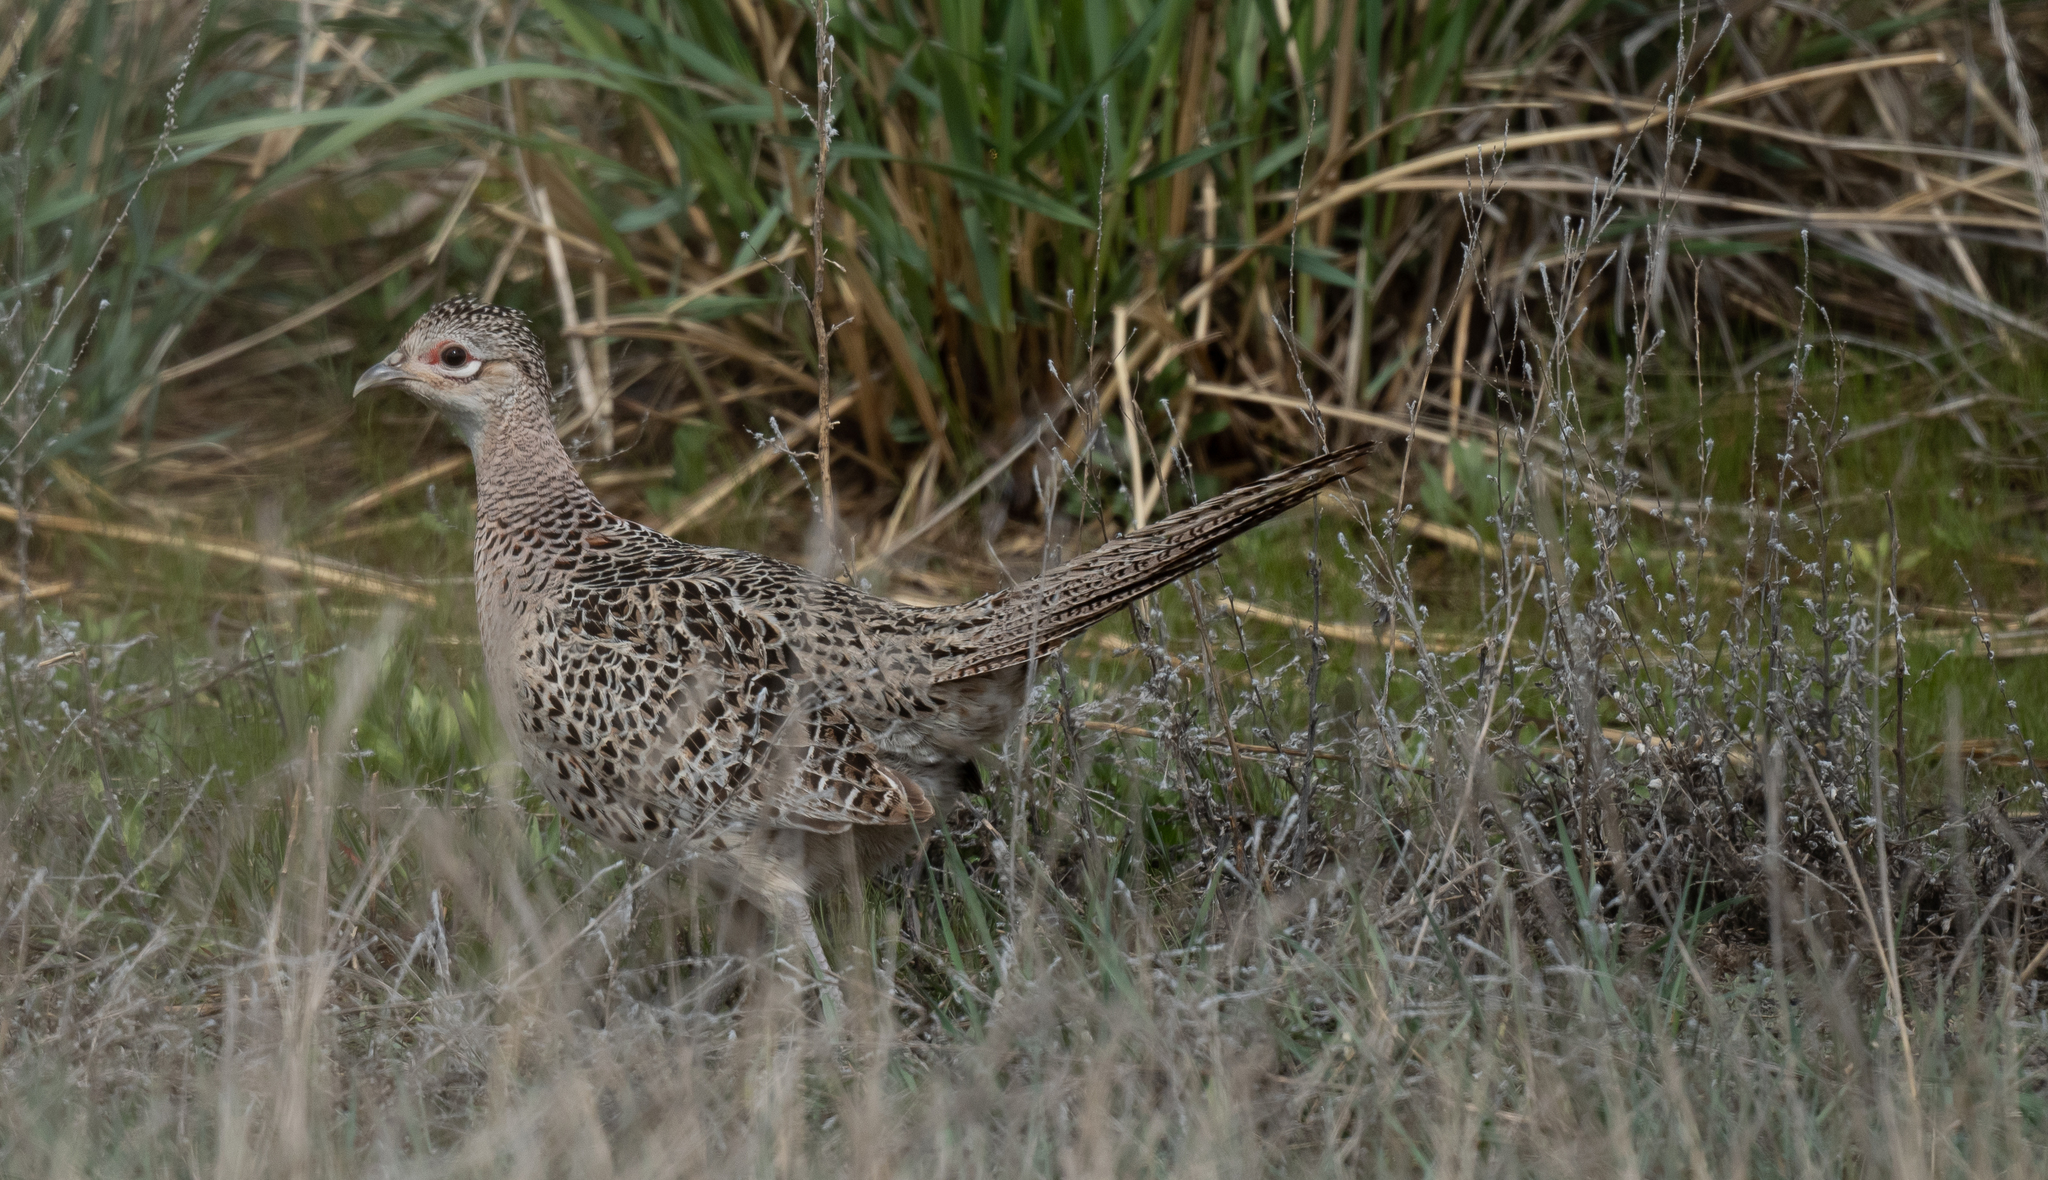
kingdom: Animalia
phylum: Chordata
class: Aves
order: Galliformes
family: Phasianidae
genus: Phasianus
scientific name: Phasianus colchicus
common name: Common pheasant
